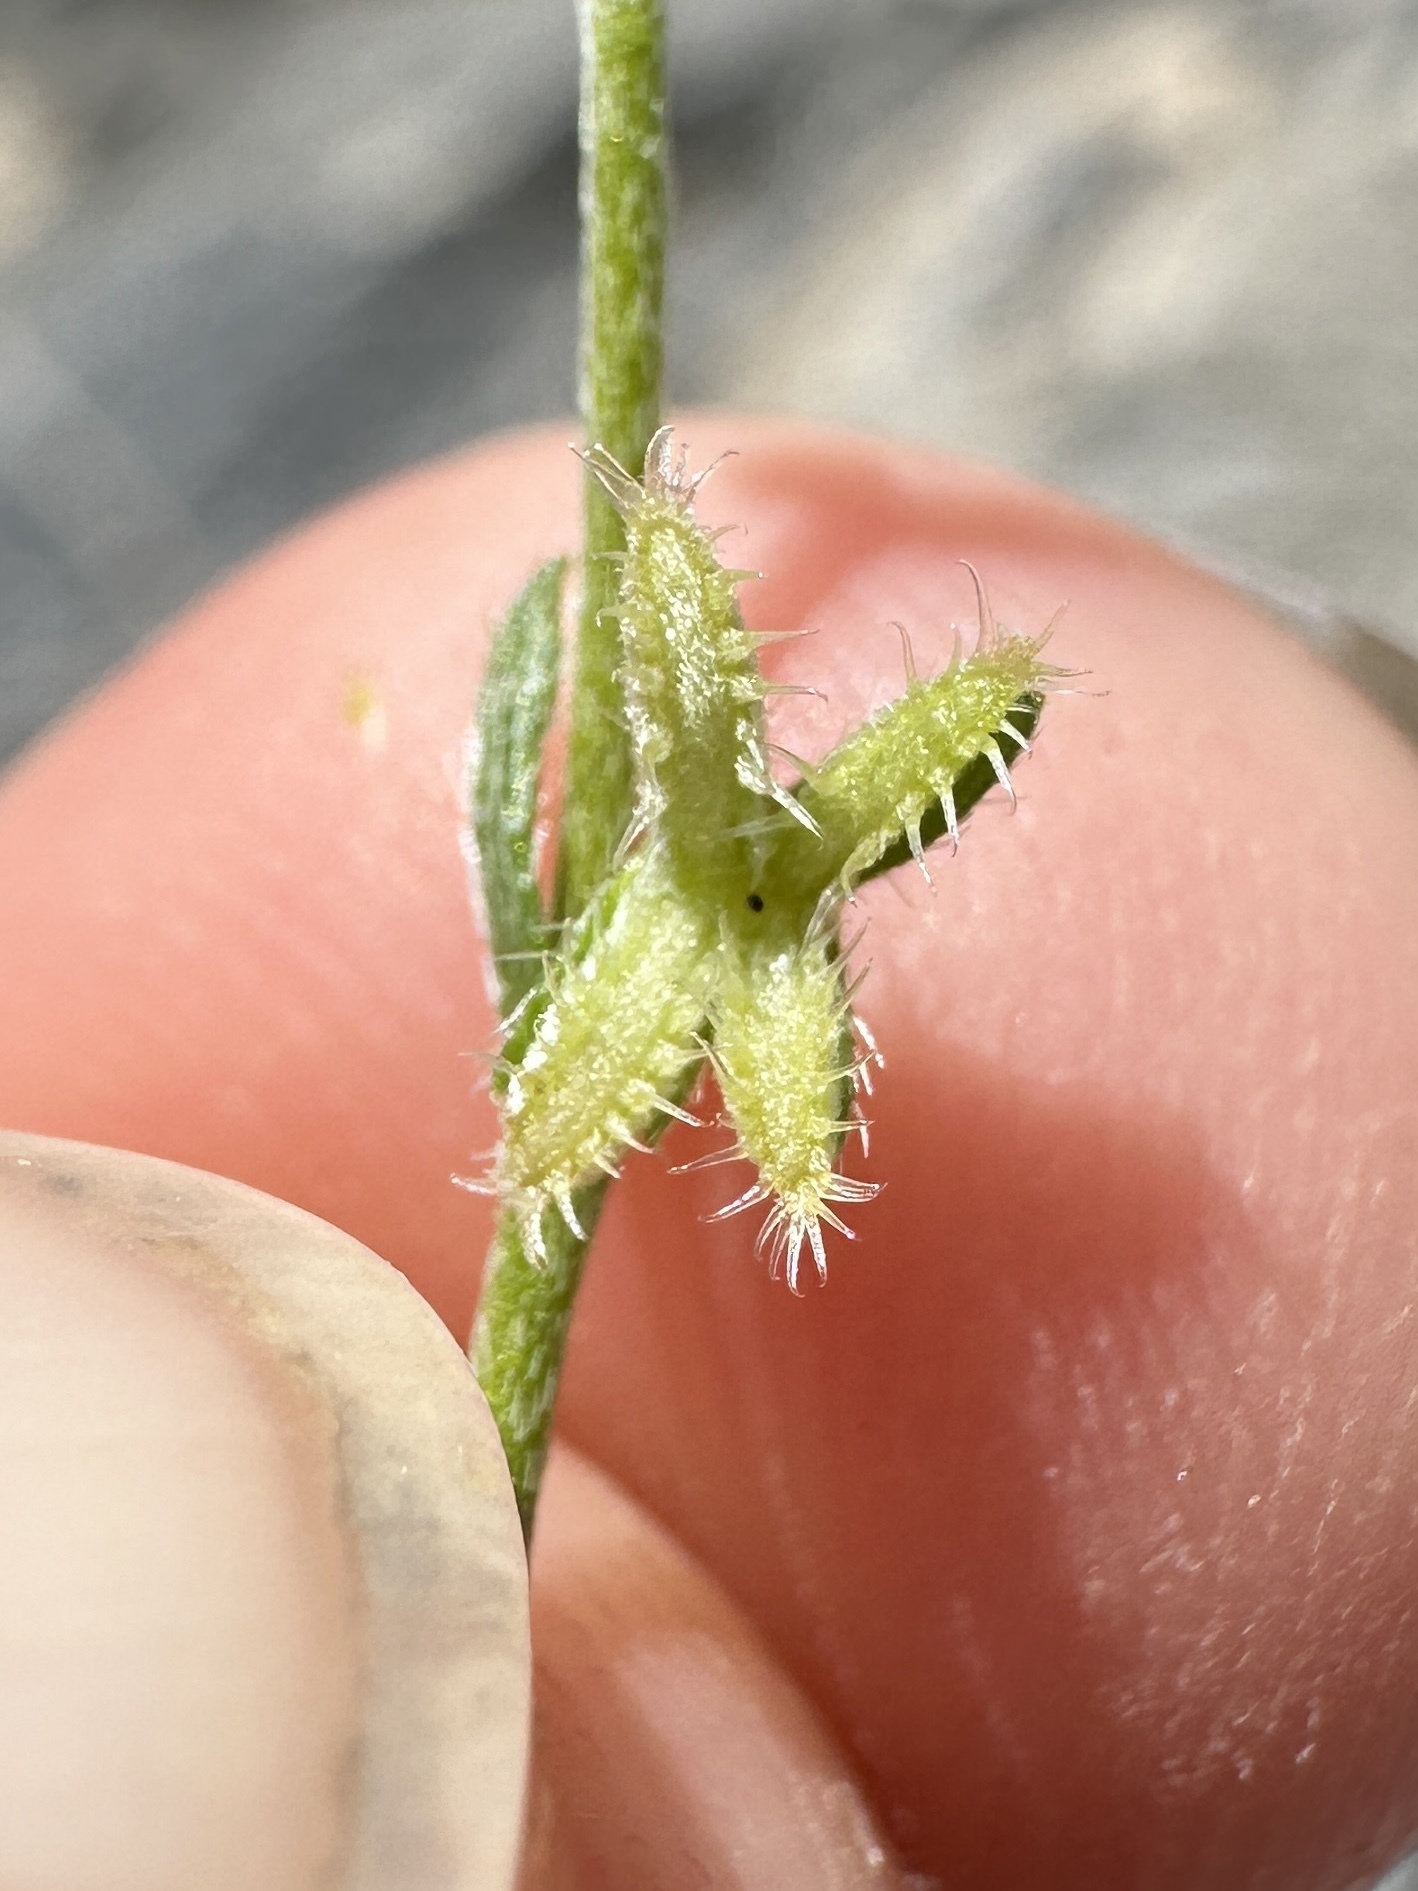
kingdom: Plantae
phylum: Tracheophyta
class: Magnoliopsida
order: Boraginales
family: Boraginaceae
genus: Pectocarya
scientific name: Pectocarya recurvata
